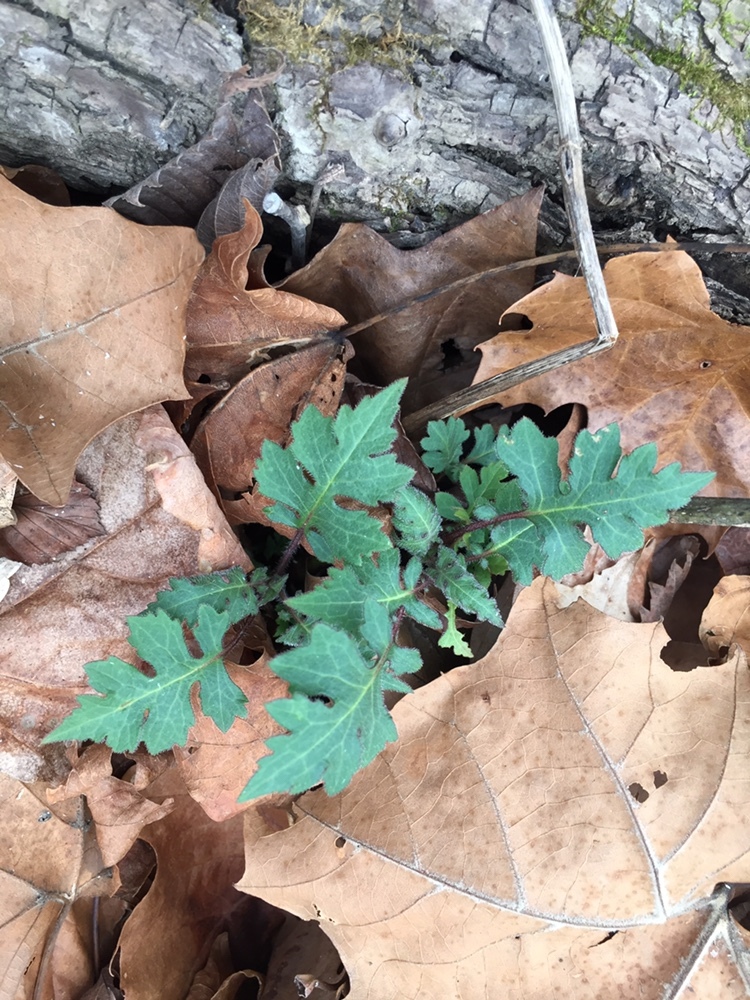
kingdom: Plantae
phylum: Tracheophyta
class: Magnoliopsida
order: Asterales
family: Asteraceae
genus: Polymnia
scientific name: Polymnia canadensis
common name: Pale-flowered leafcup
